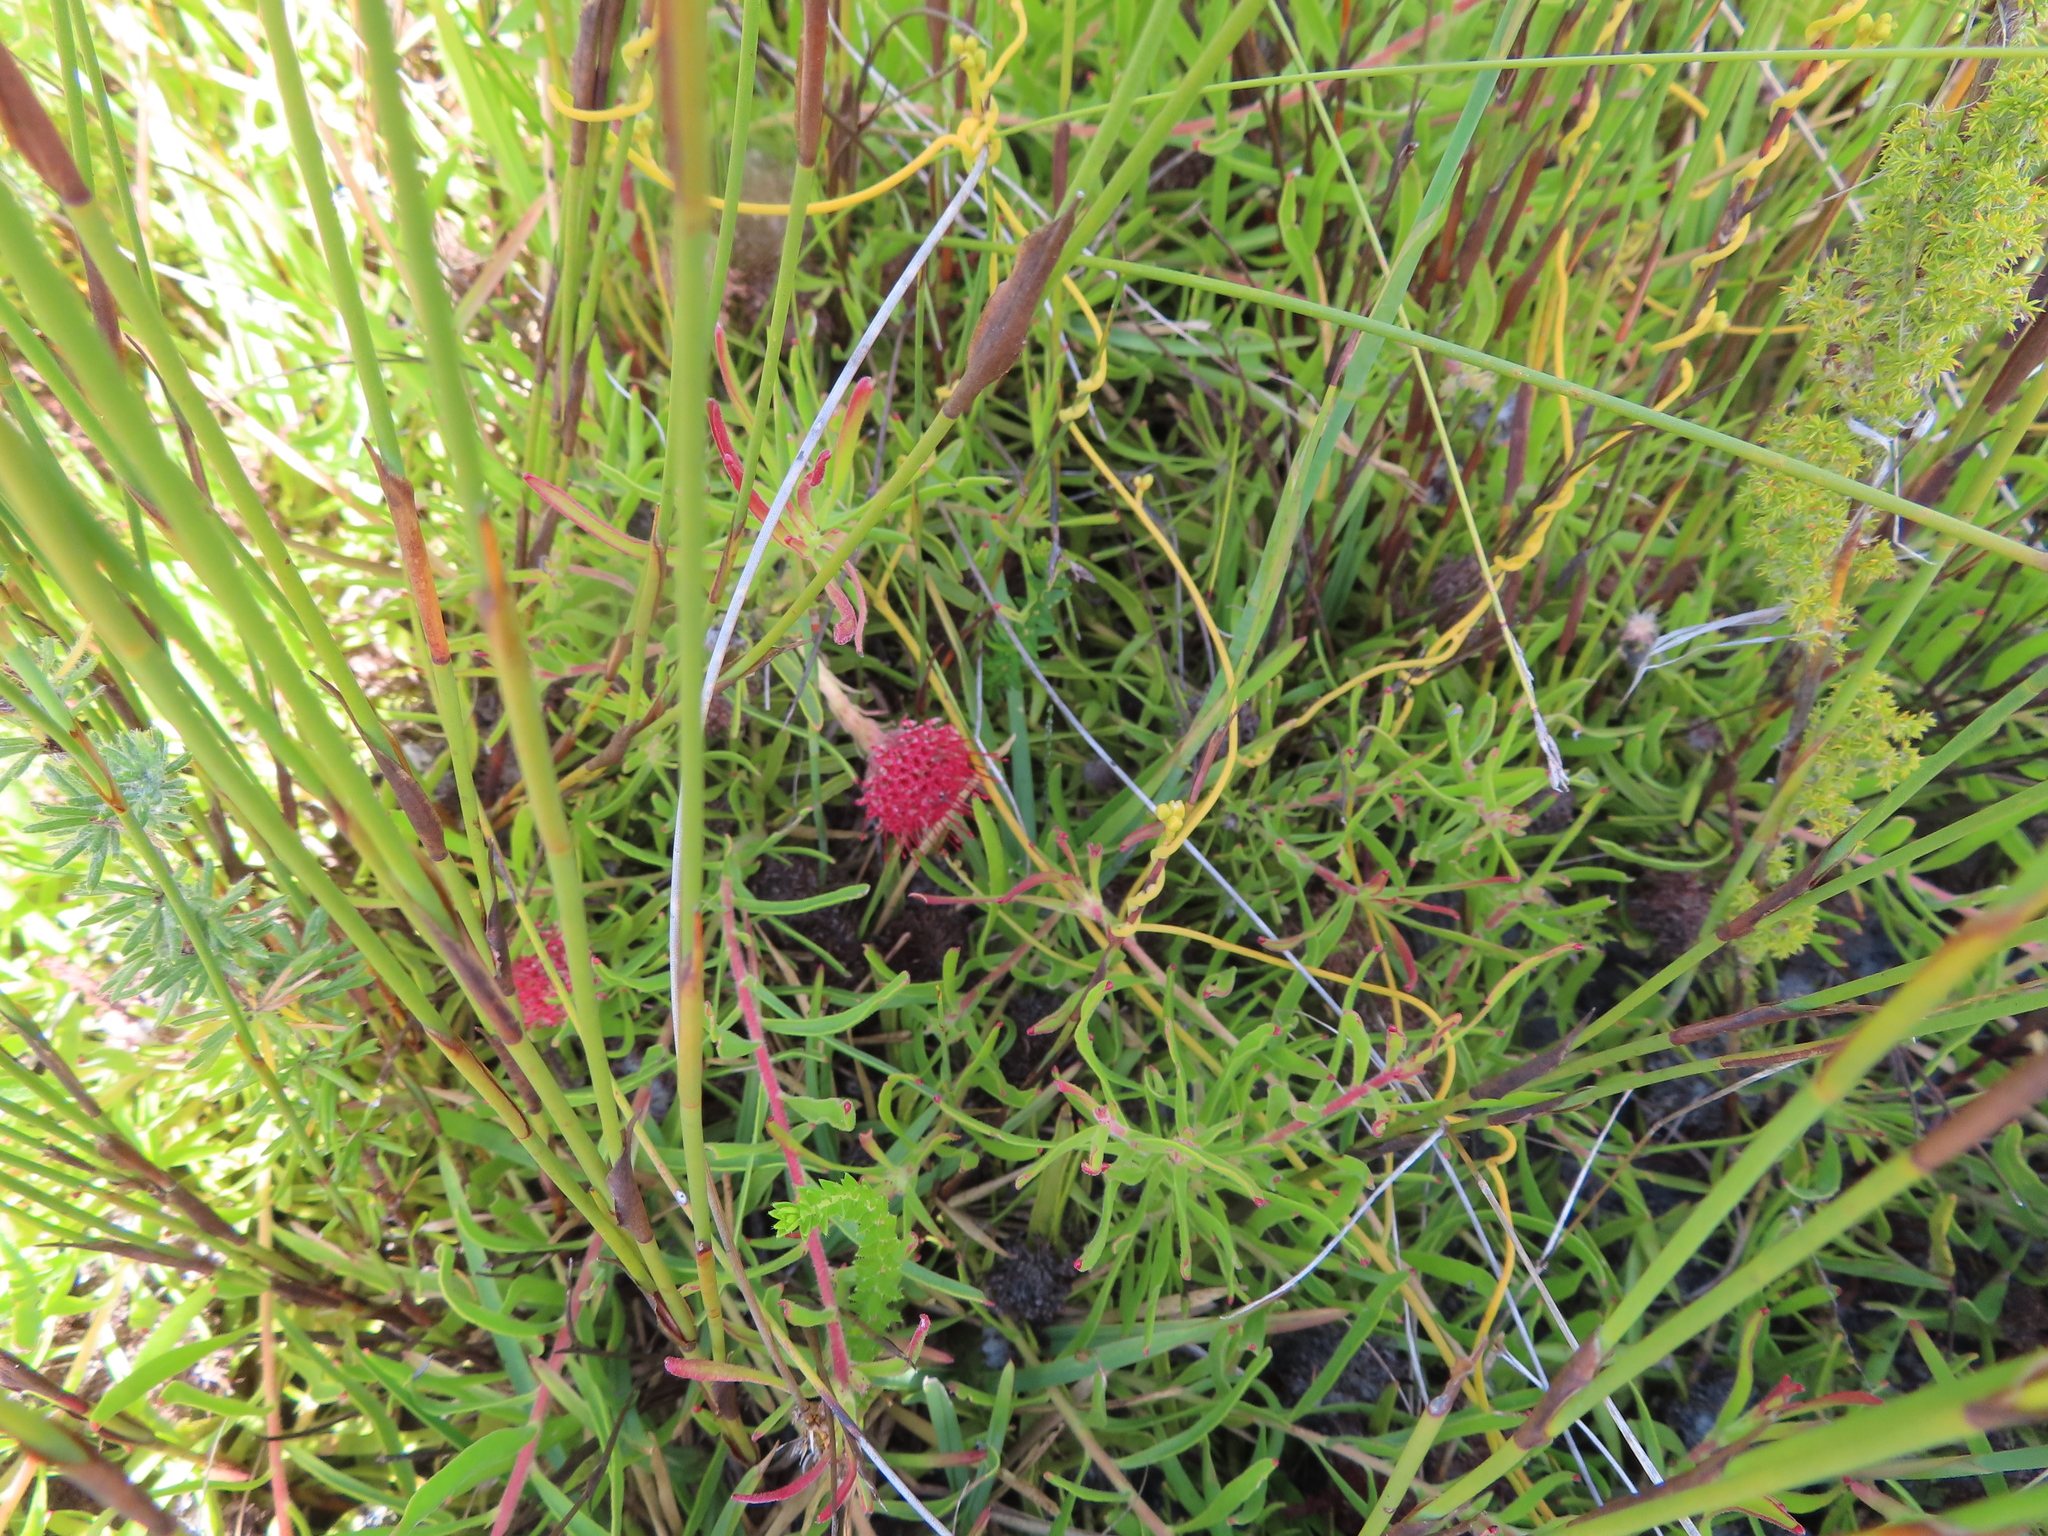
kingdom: Plantae
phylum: Tracheophyta
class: Magnoliopsida
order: Proteales
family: Proteaceae
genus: Leucospermum
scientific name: Leucospermum pedunculatum
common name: White-trailing pincushion
